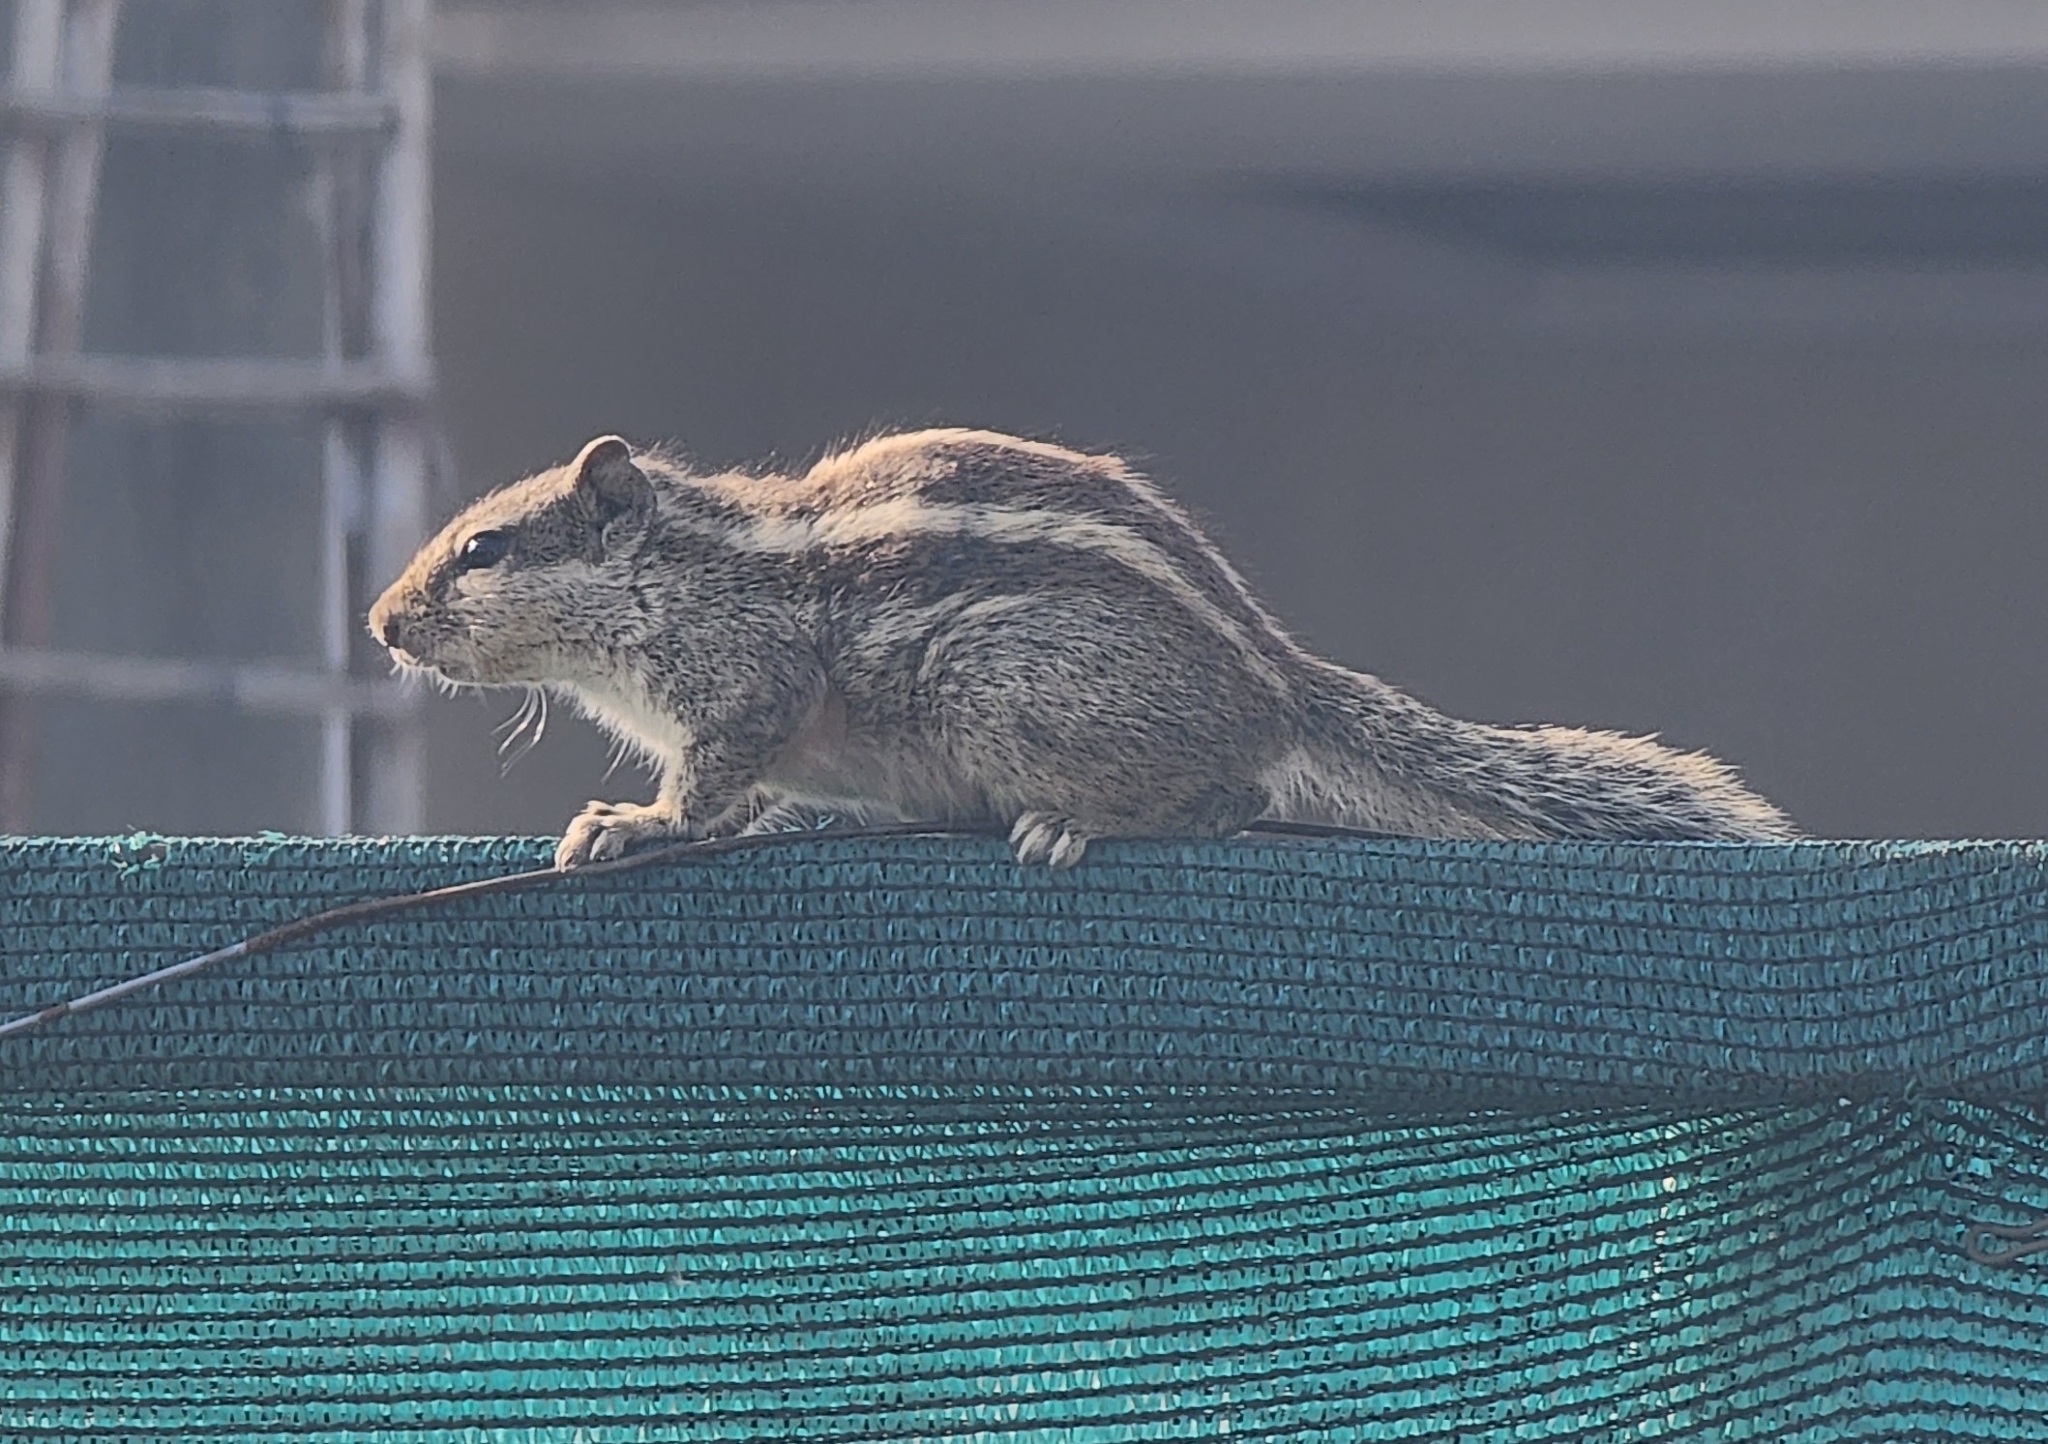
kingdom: Animalia
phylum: Chordata
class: Mammalia
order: Rodentia
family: Sciuridae
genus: Funambulus
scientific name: Funambulus pennantii
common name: Northern palm squirrel
